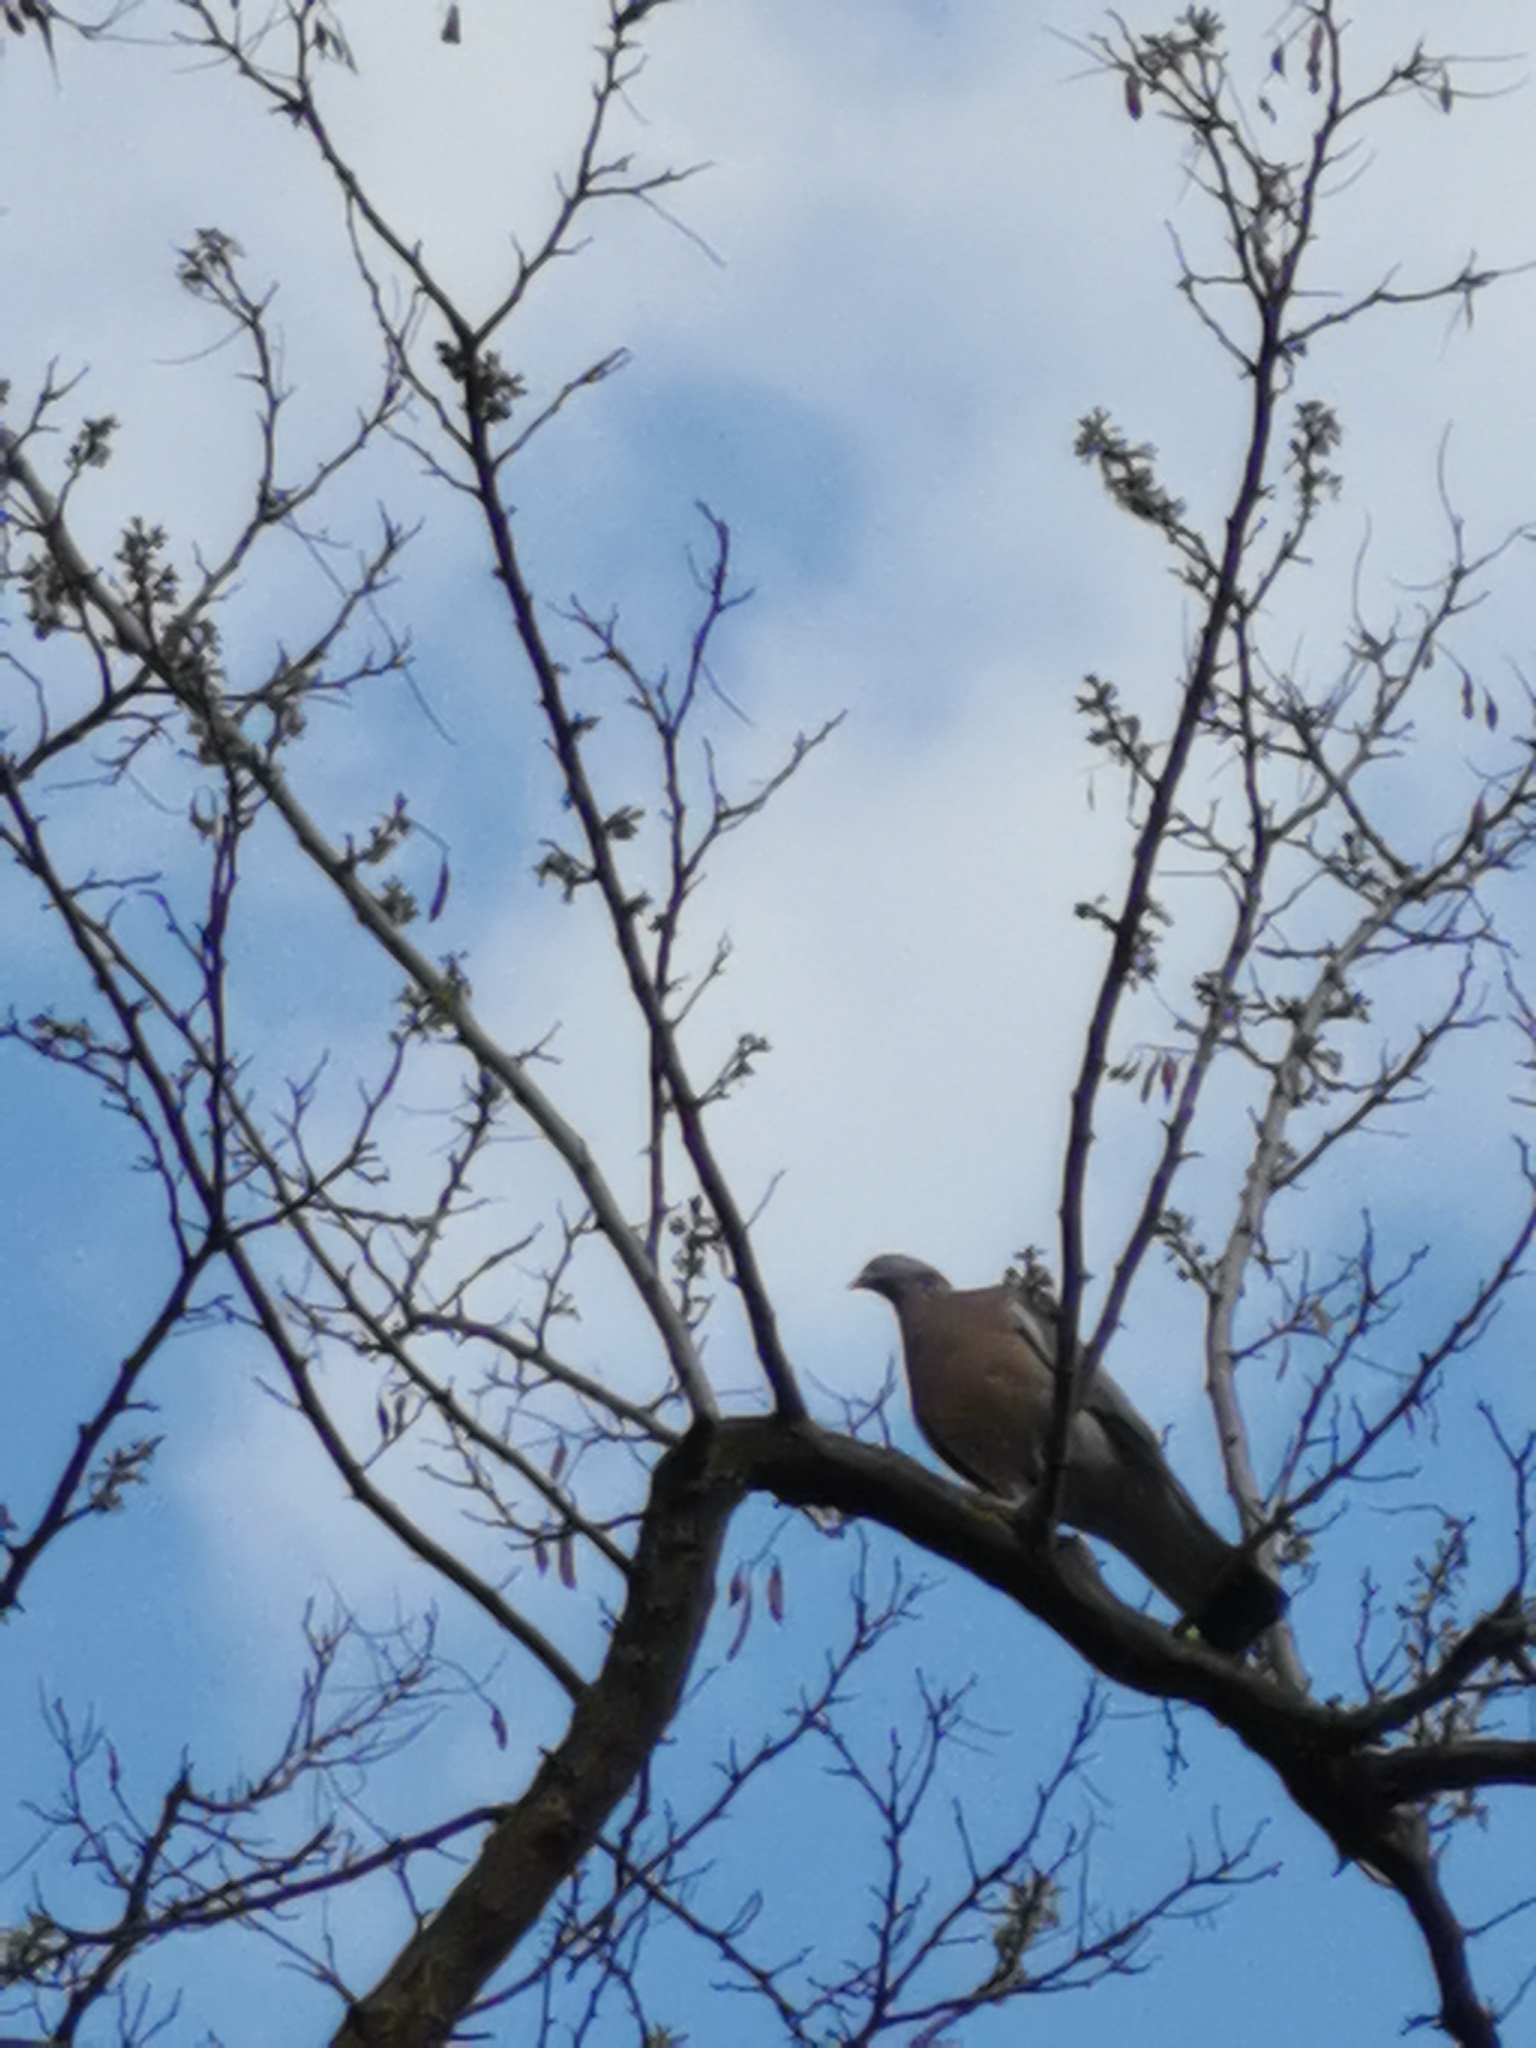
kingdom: Animalia
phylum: Chordata
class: Aves
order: Columbiformes
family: Columbidae
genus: Columba
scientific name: Columba palumbus
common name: Common wood pigeon
